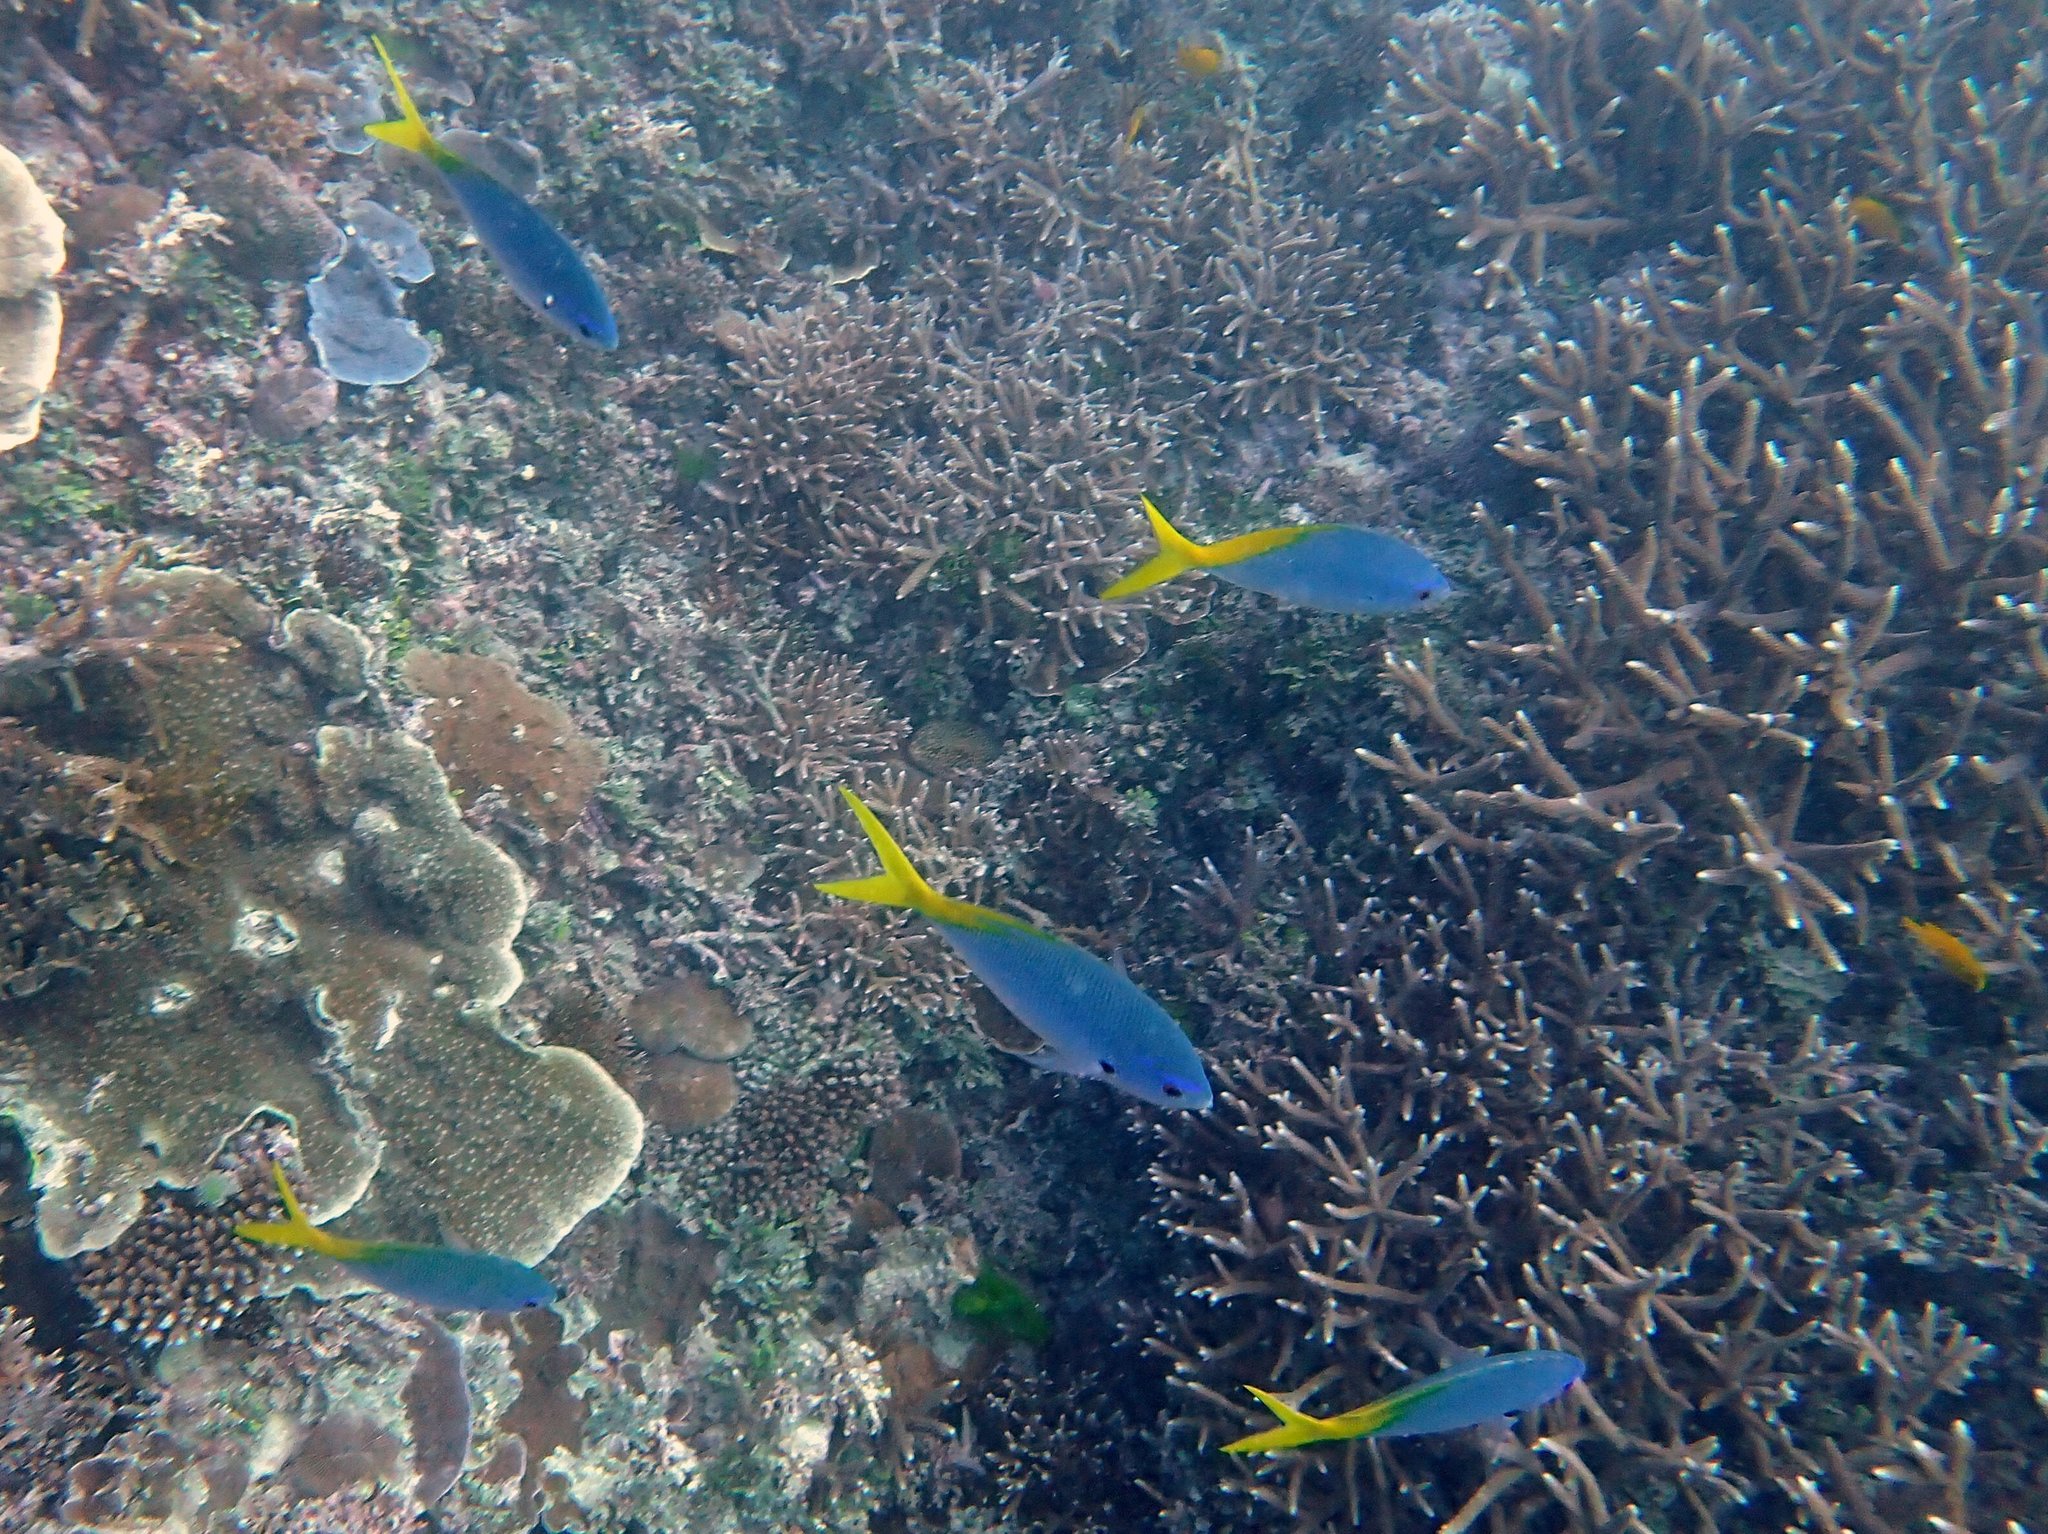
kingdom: Animalia
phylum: Chordata
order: Perciformes
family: Caesionidae
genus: Caesio
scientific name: Caesio teres
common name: Yellow and blueback fusilier
